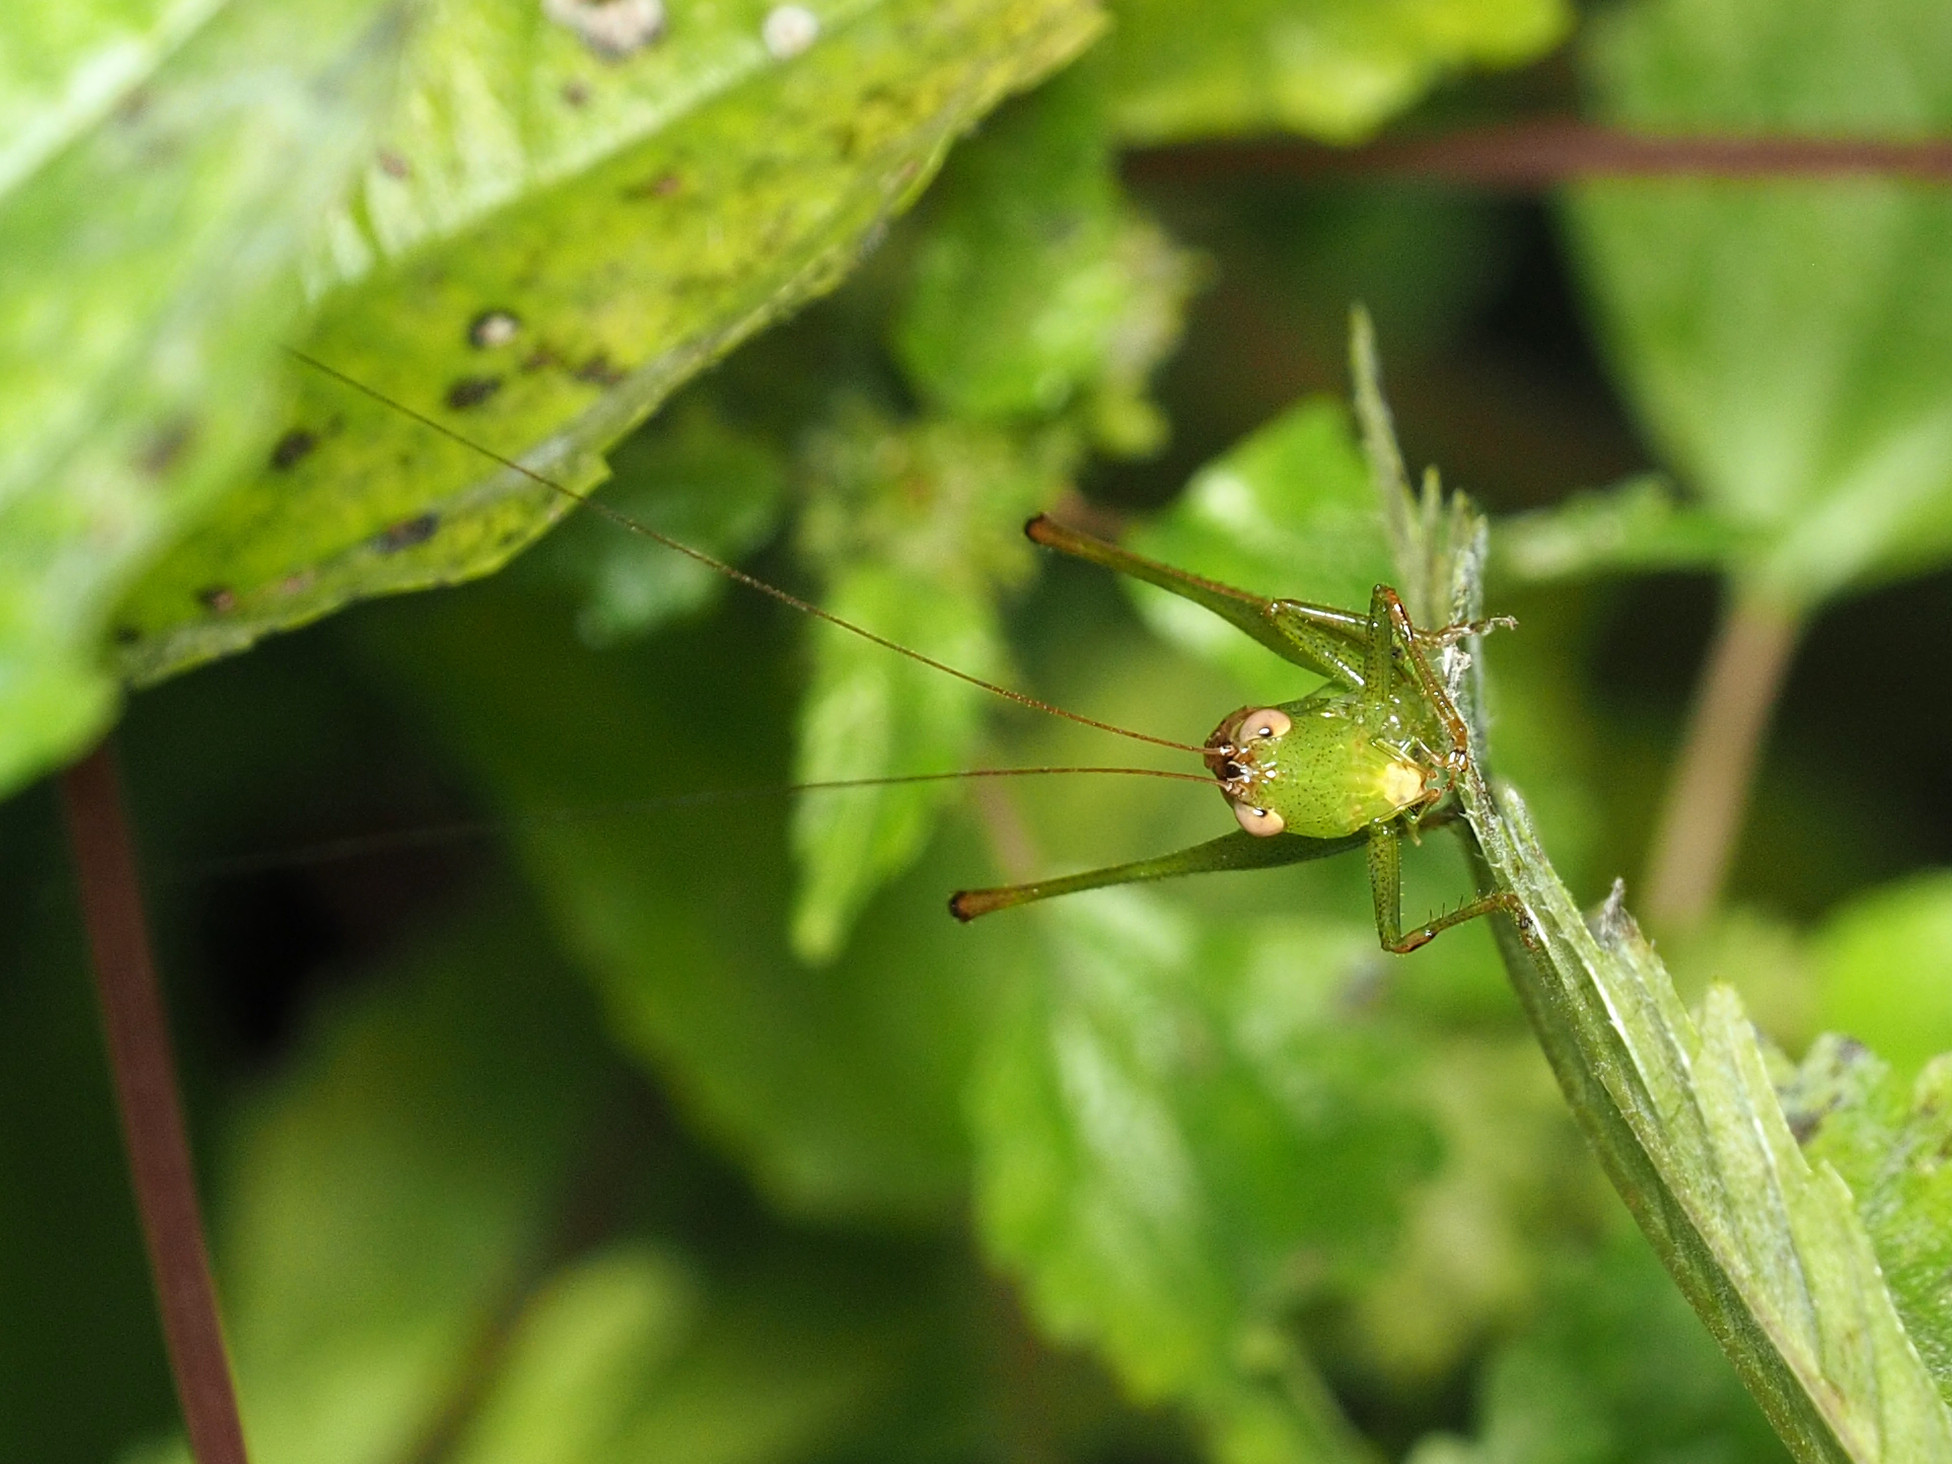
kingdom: Animalia
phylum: Arthropoda
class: Insecta
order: Orthoptera
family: Tettigoniidae
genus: Conocephalus
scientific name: Conocephalus brevipennis
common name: Short-winged meadow katydid
